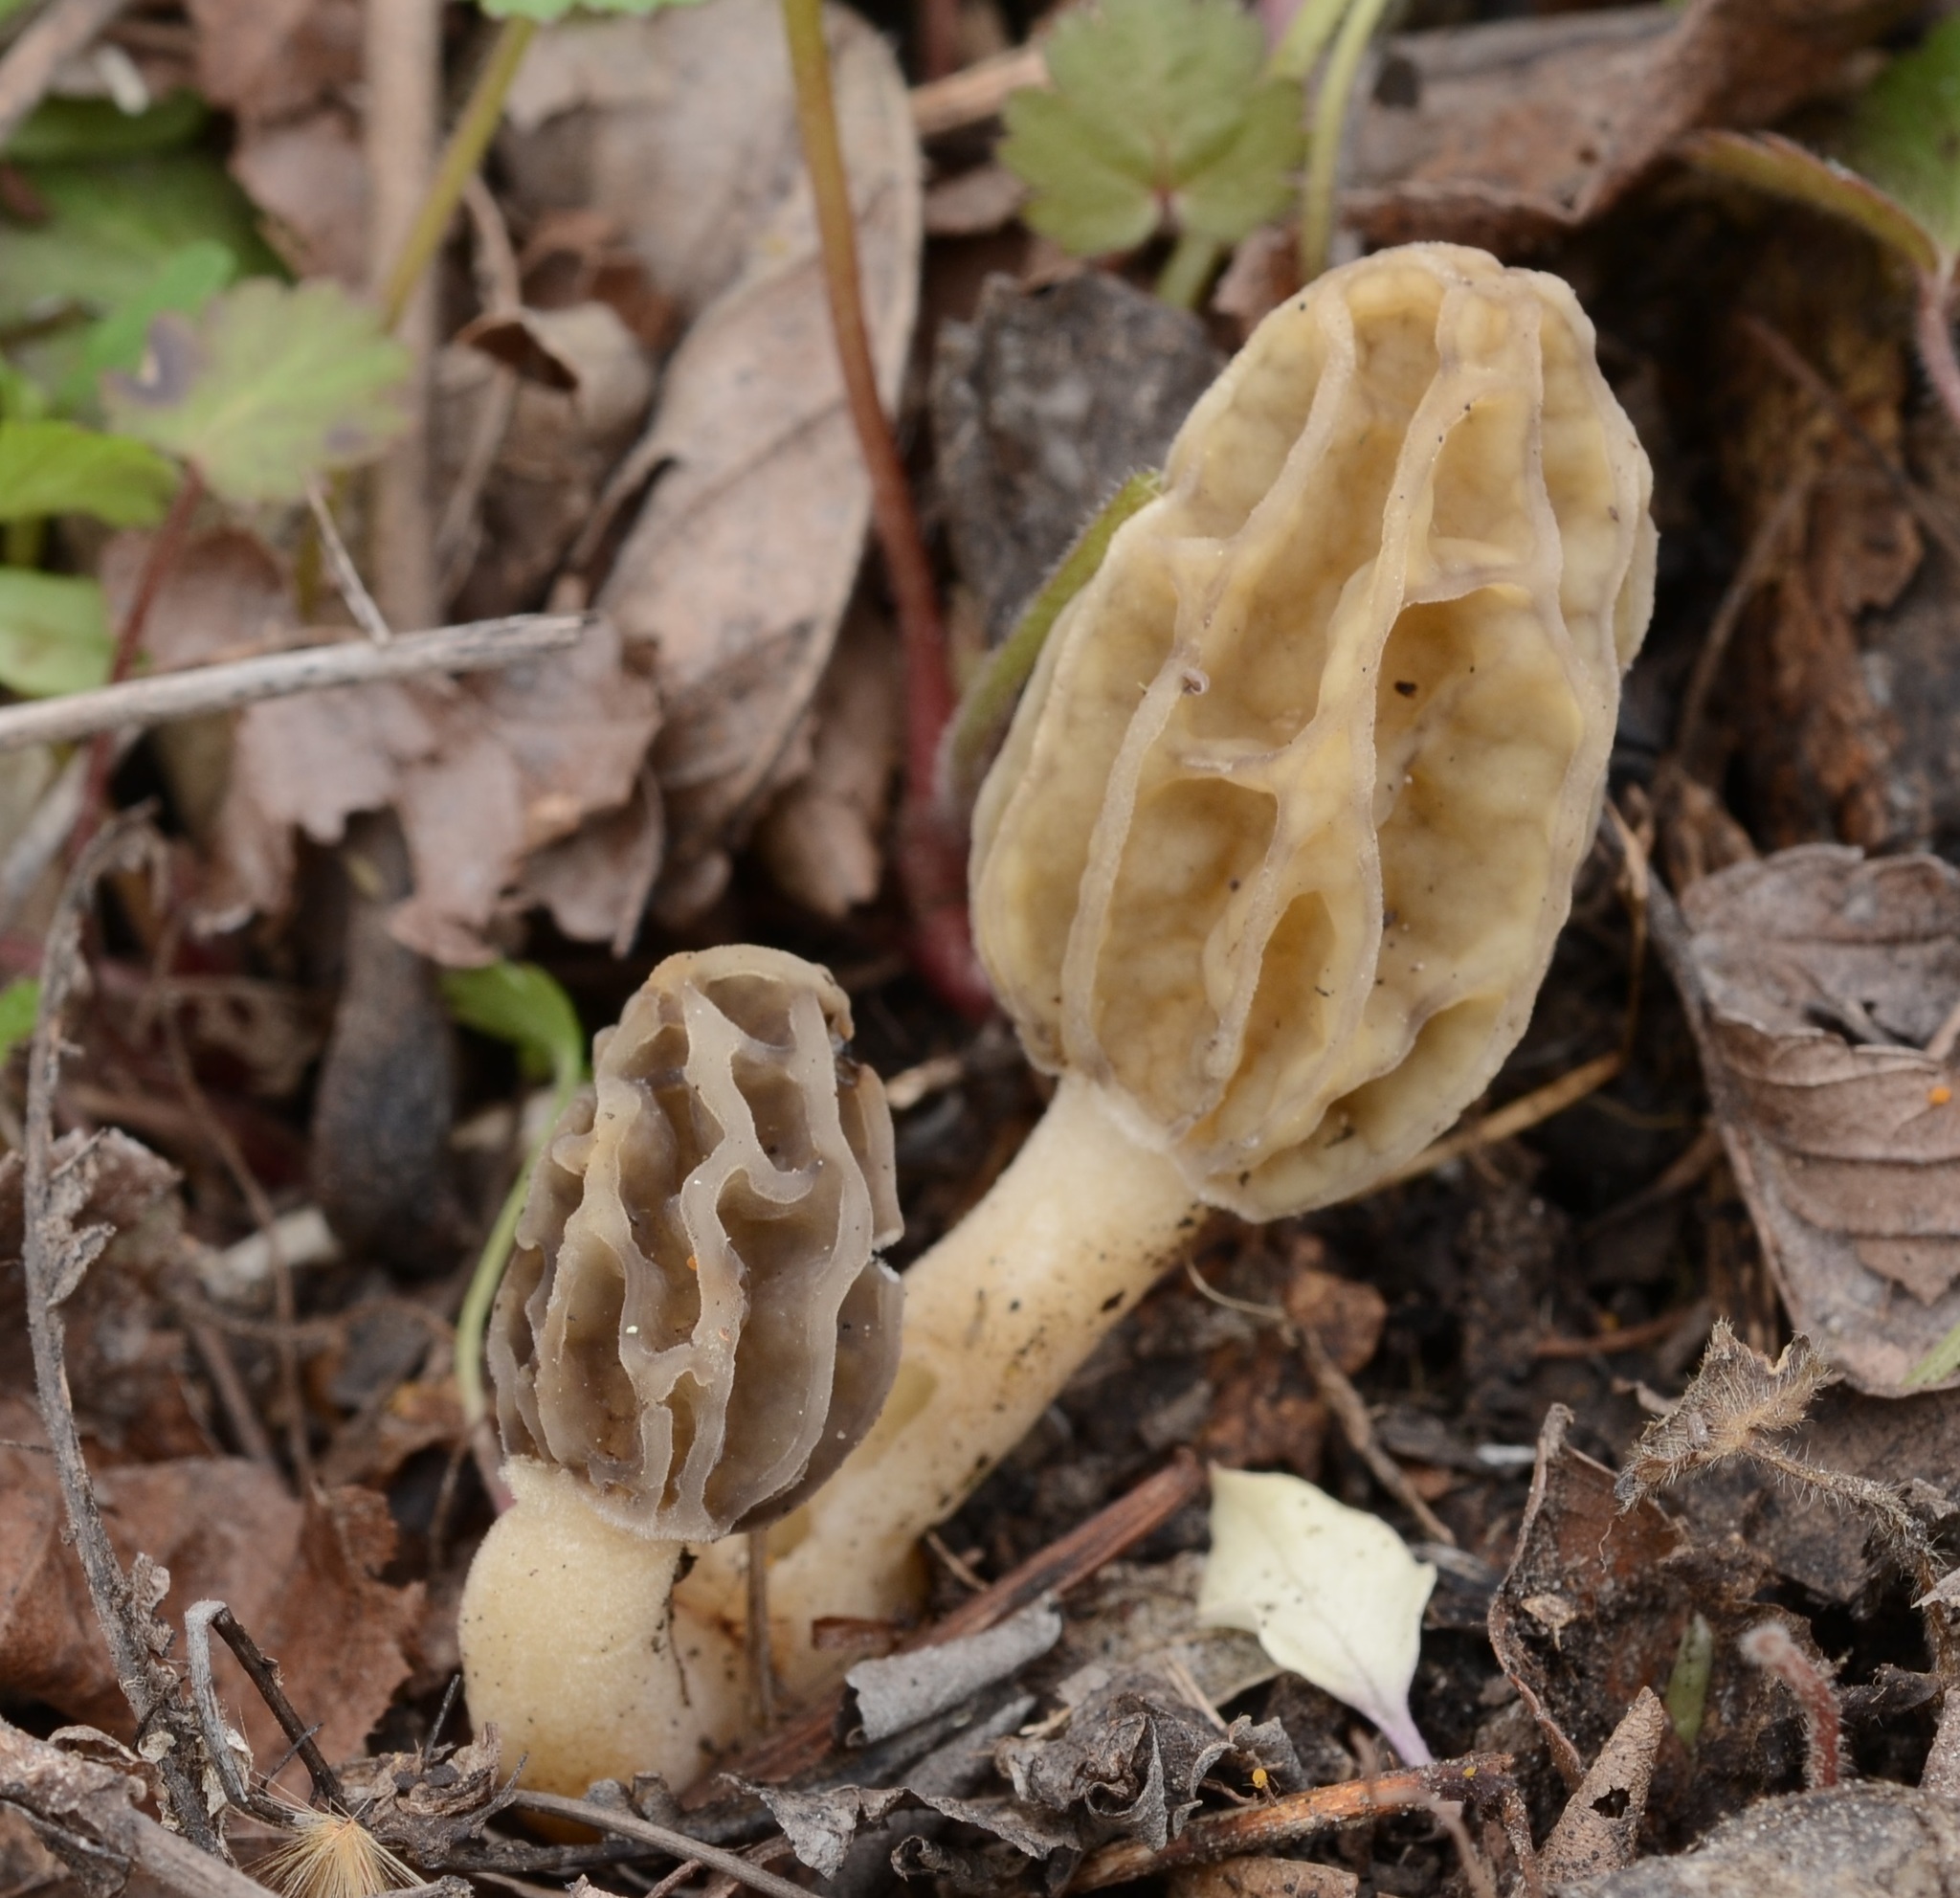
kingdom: Fungi
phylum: Ascomycota
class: Pezizomycetes
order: Pezizales
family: Morchellaceae
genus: Morchella
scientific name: Morchella diminutiva
